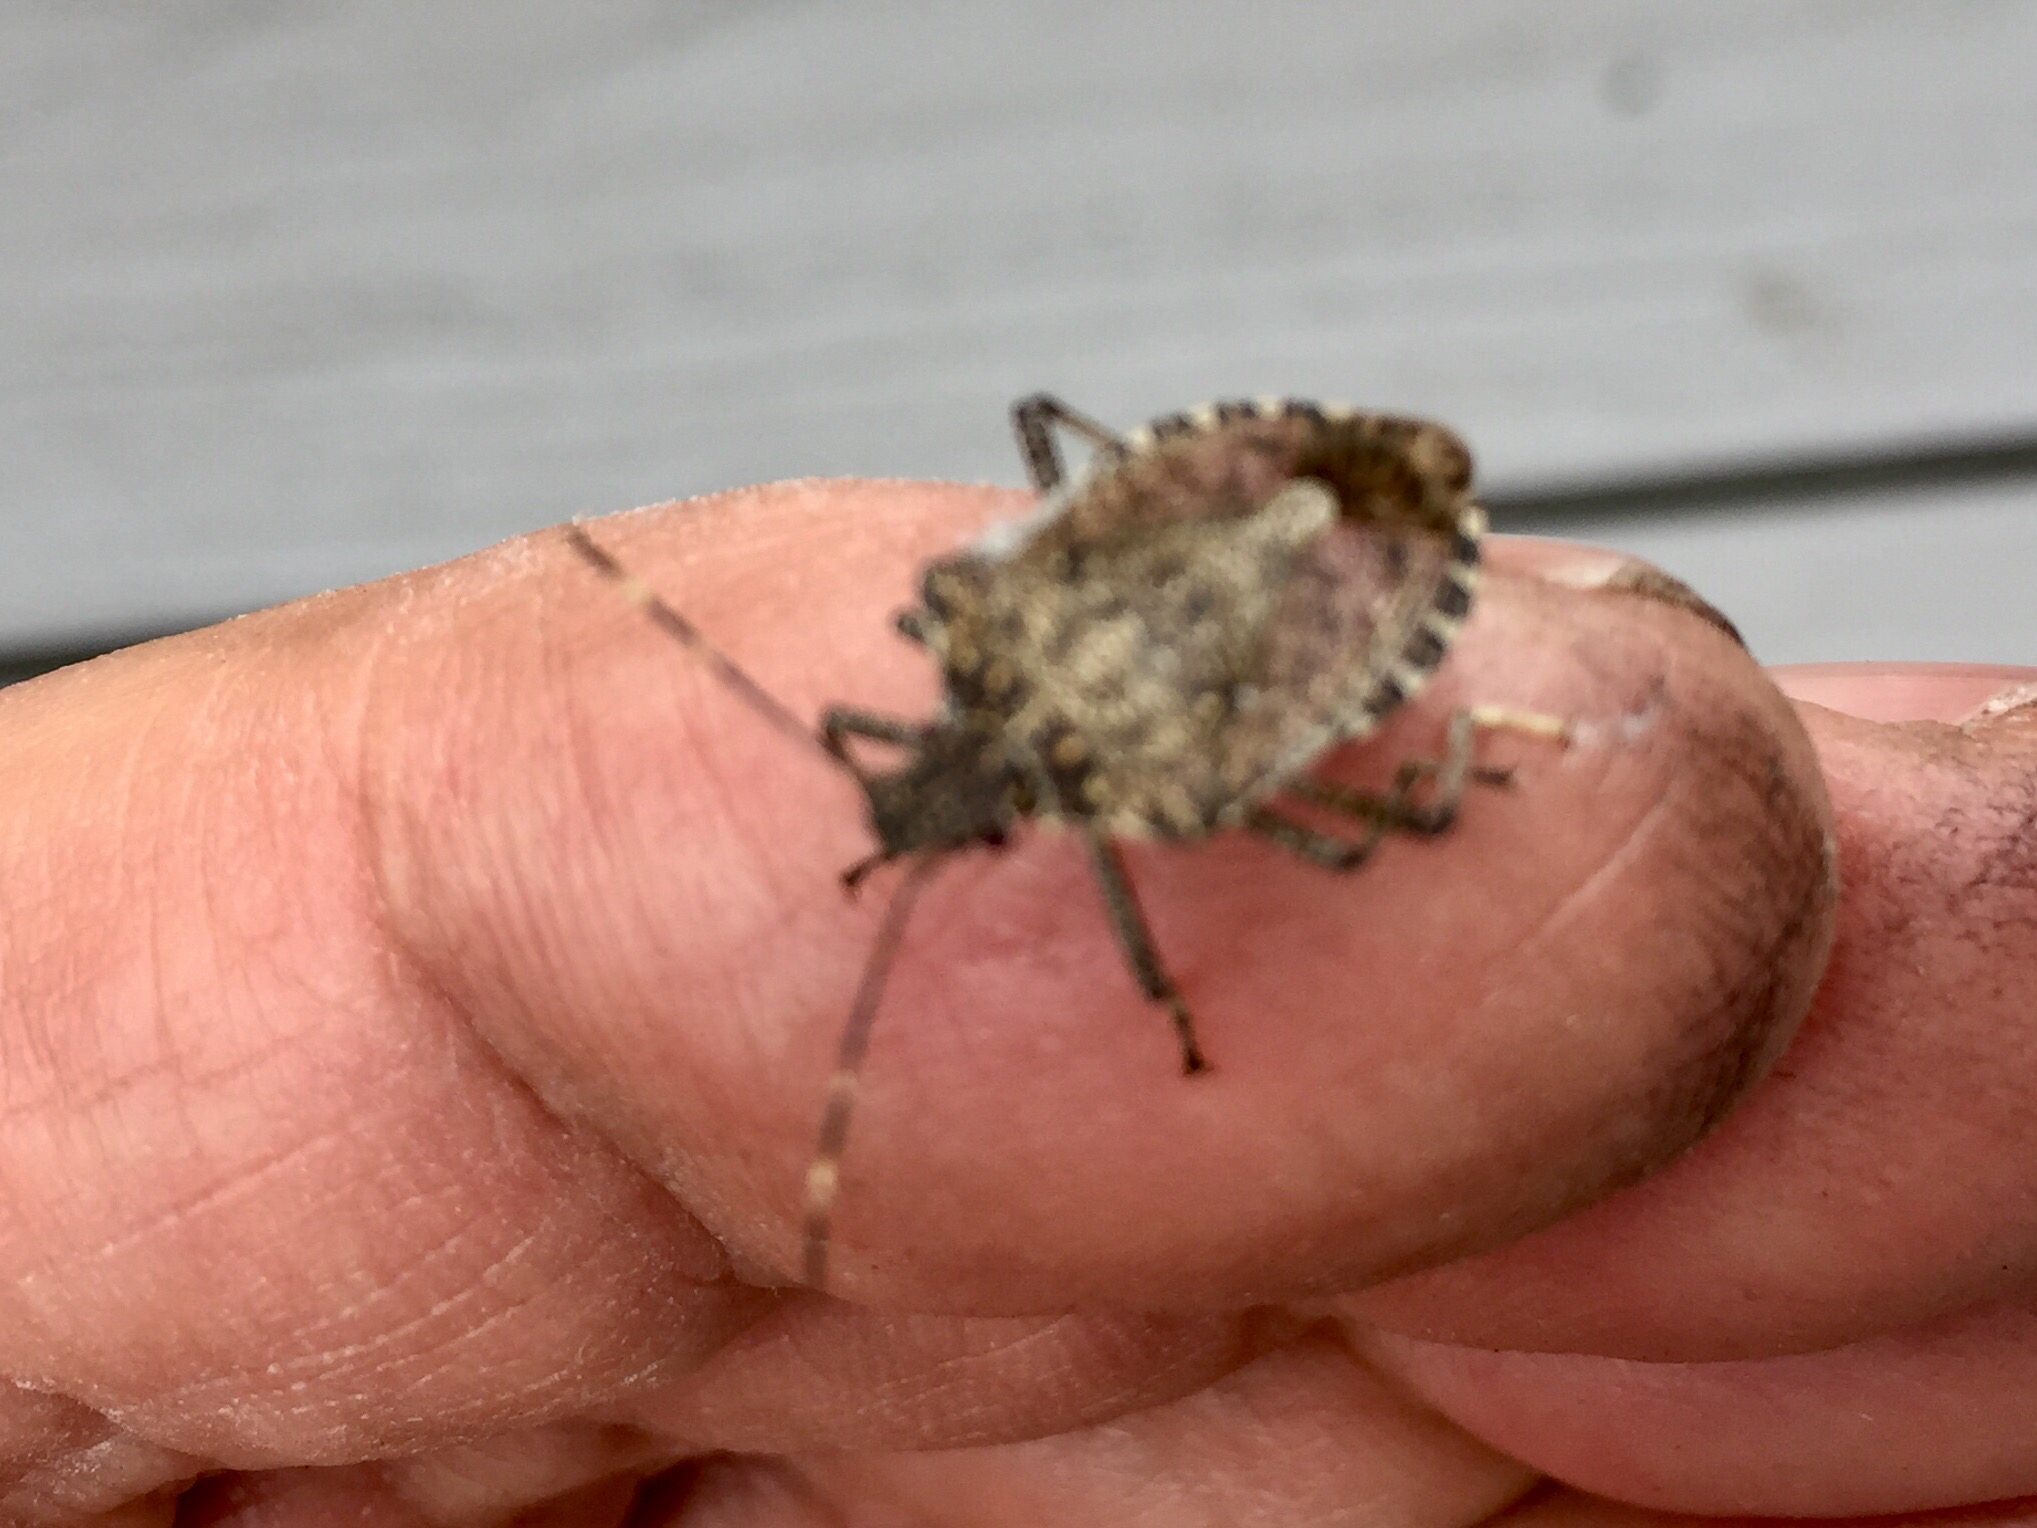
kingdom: Animalia
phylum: Arthropoda
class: Insecta
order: Hemiptera
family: Pentatomidae
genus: Halyomorpha
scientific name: Halyomorpha halys
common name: Brown marmorated stink bug
